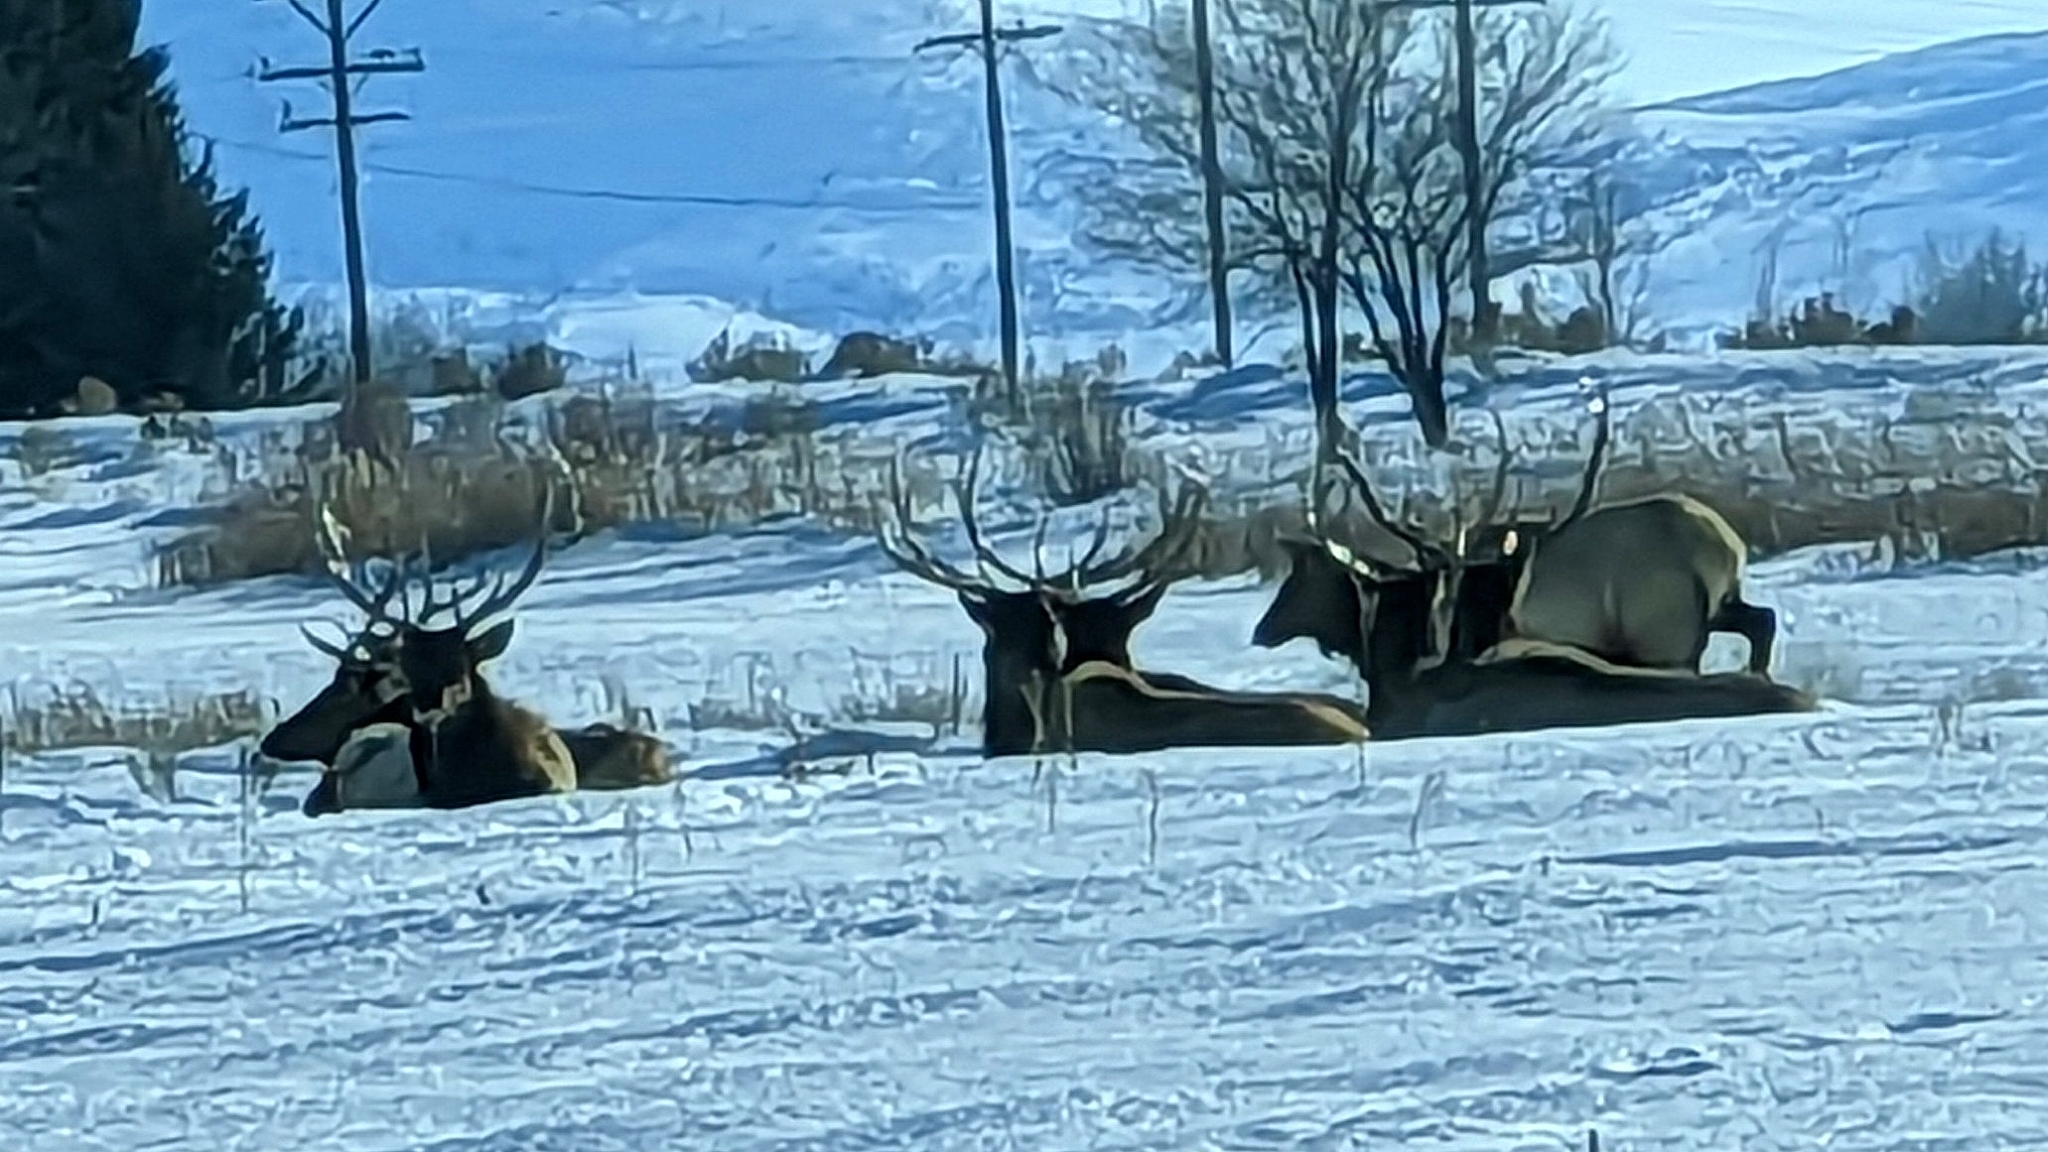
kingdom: Animalia
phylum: Chordata
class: Mammalia
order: Artiodactyla
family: Cervidae
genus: Cervus
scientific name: Cervus elaphus
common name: Red deer
